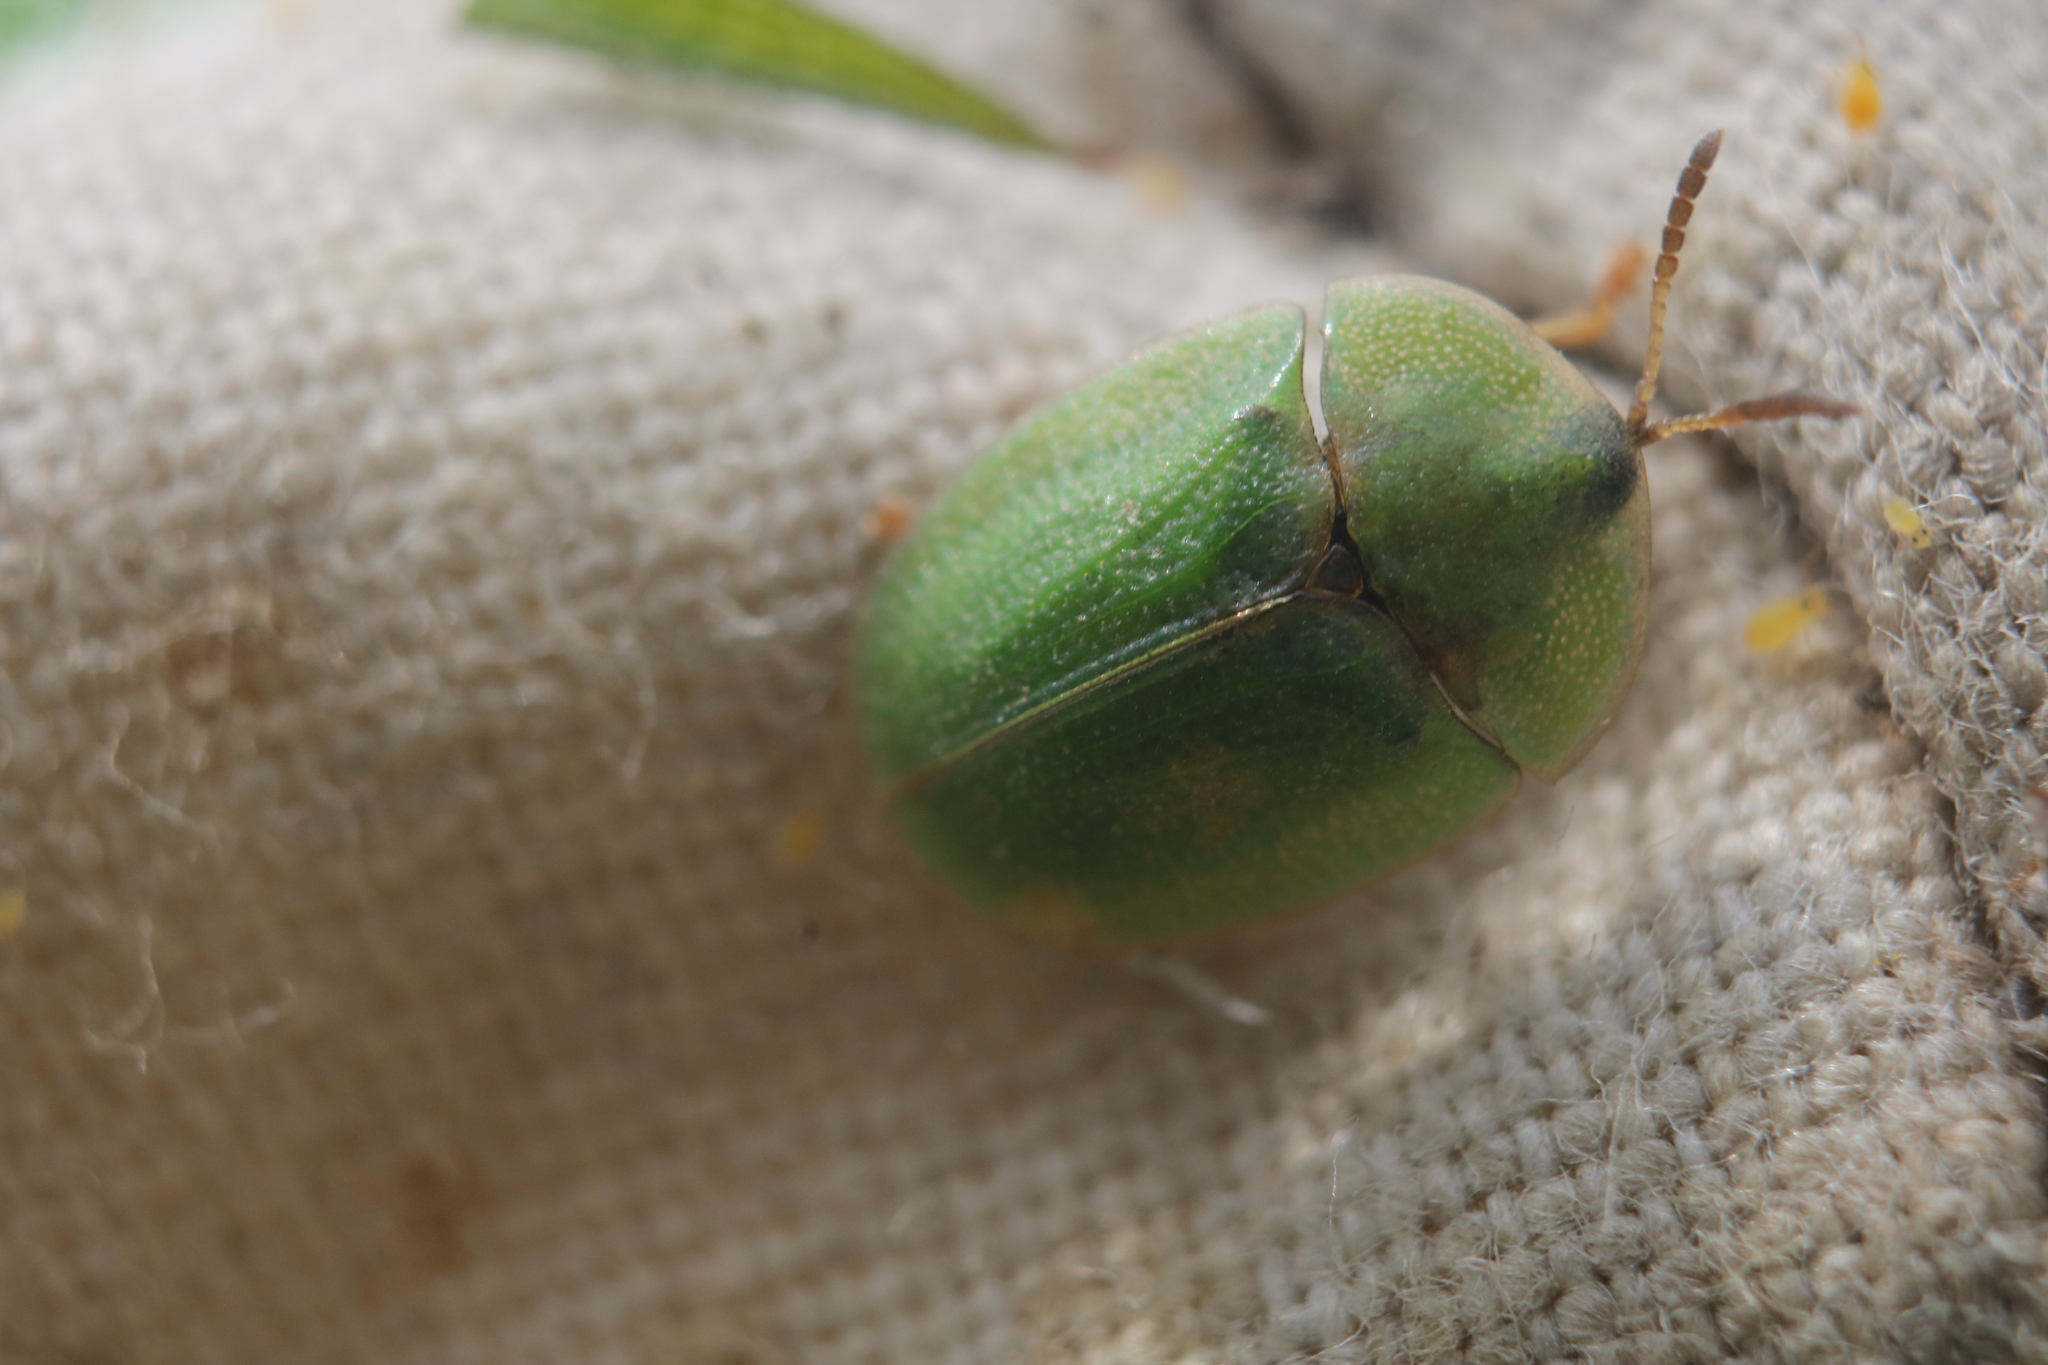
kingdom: Animalia
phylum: Arthropoda
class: Insecta
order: Coleoptera
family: Chrysomelidae
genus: Cassida
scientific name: Cassida rubiginosa
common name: Thistle tortoise beetle
